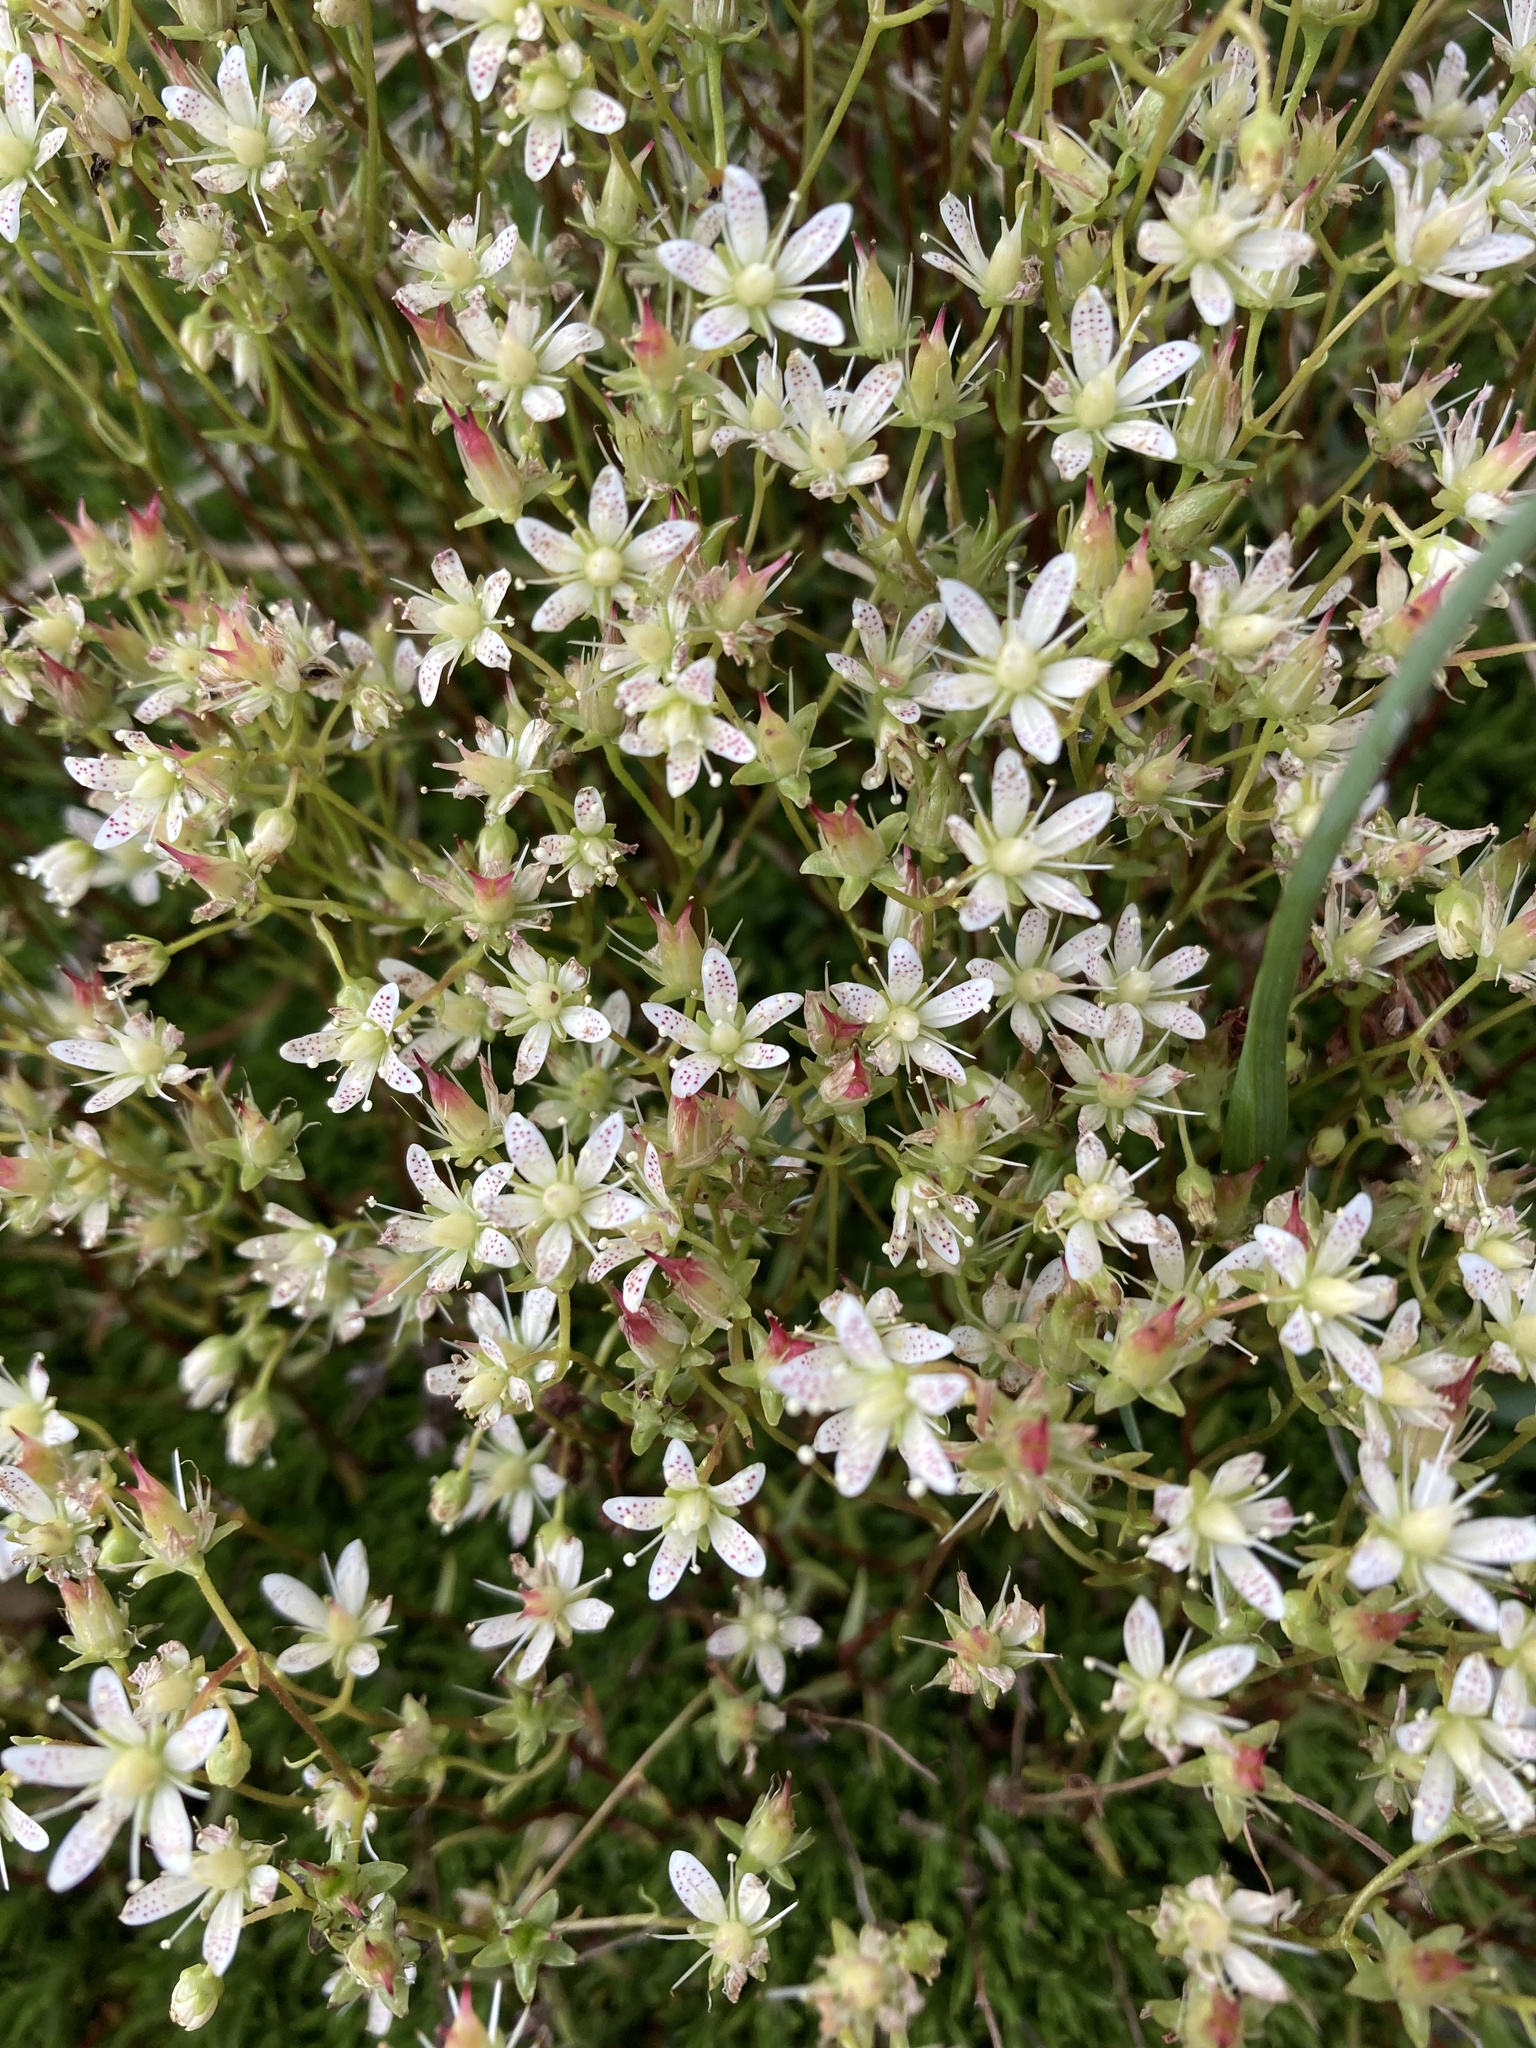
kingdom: Plantae
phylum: Tracheophyta
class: Magnoliopsida
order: Saxifragales
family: Saxifragaceae
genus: Saxifraga
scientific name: Saxifraga bronchialis
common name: Matted saxifrage
